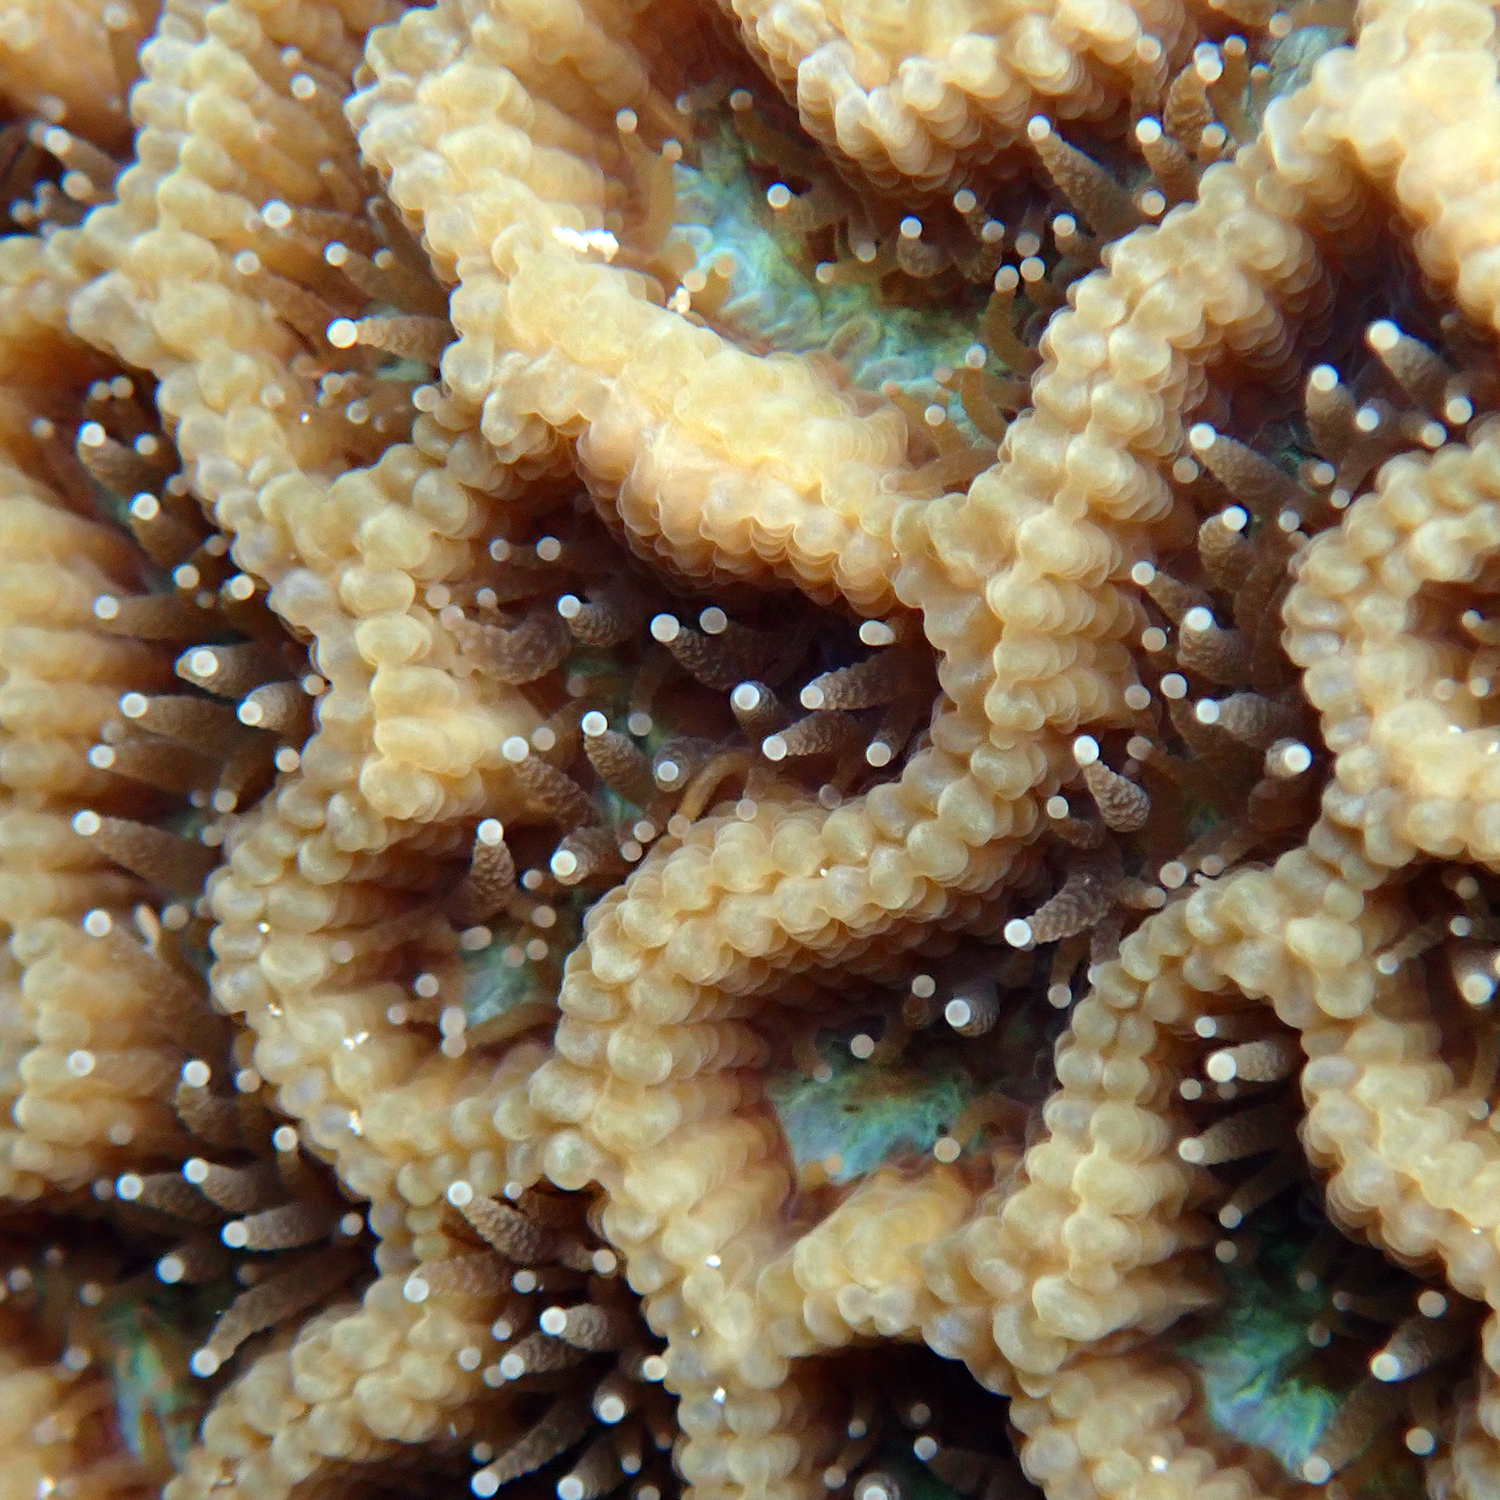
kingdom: Animalia
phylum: Cnidaria
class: Anthozoa
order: Scleractinia
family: Merulinidae
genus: Paragoniastrea
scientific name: Paragoniastrea australensis
